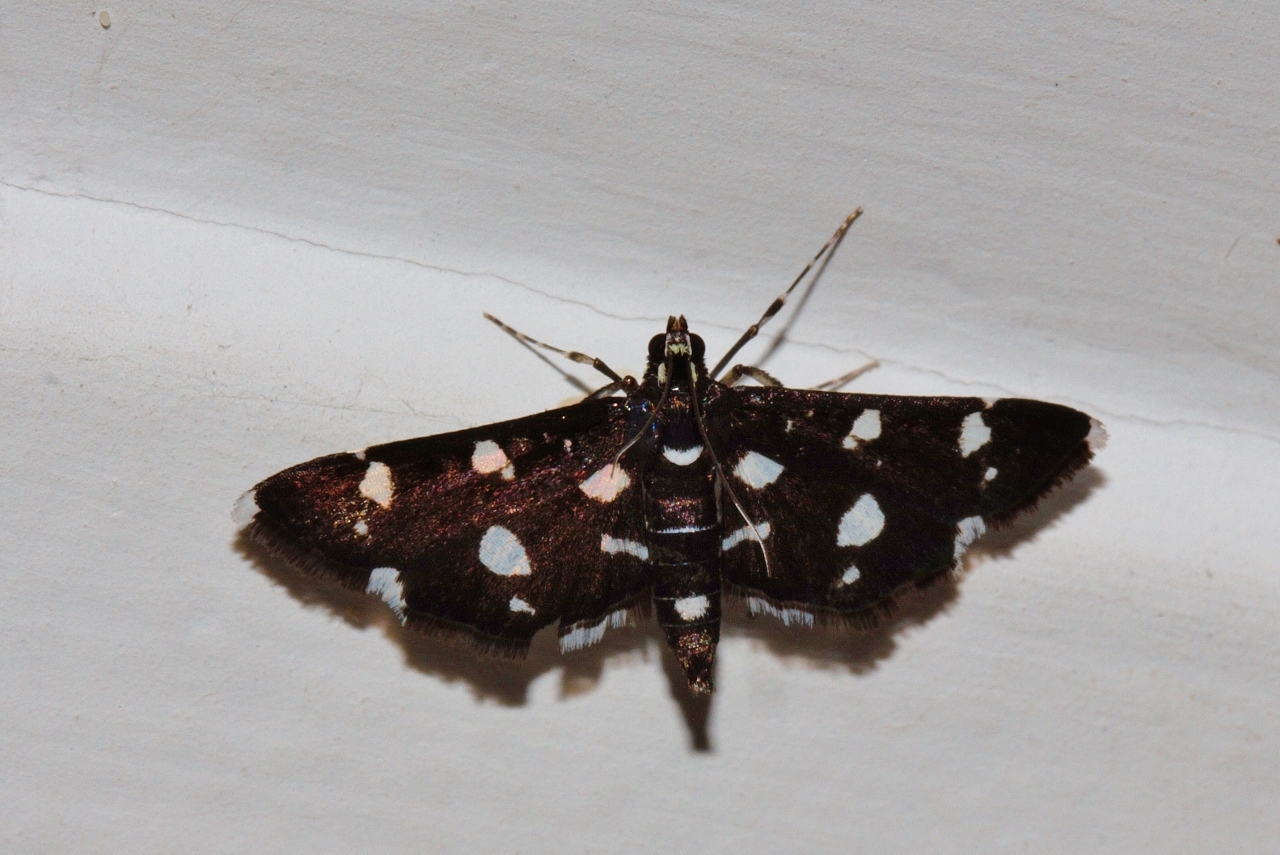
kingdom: Animalia
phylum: Arthropoda
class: Insecta
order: Lepidoptera
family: Crambidae
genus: Bocchoris
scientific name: Bocchoris inspersalis
